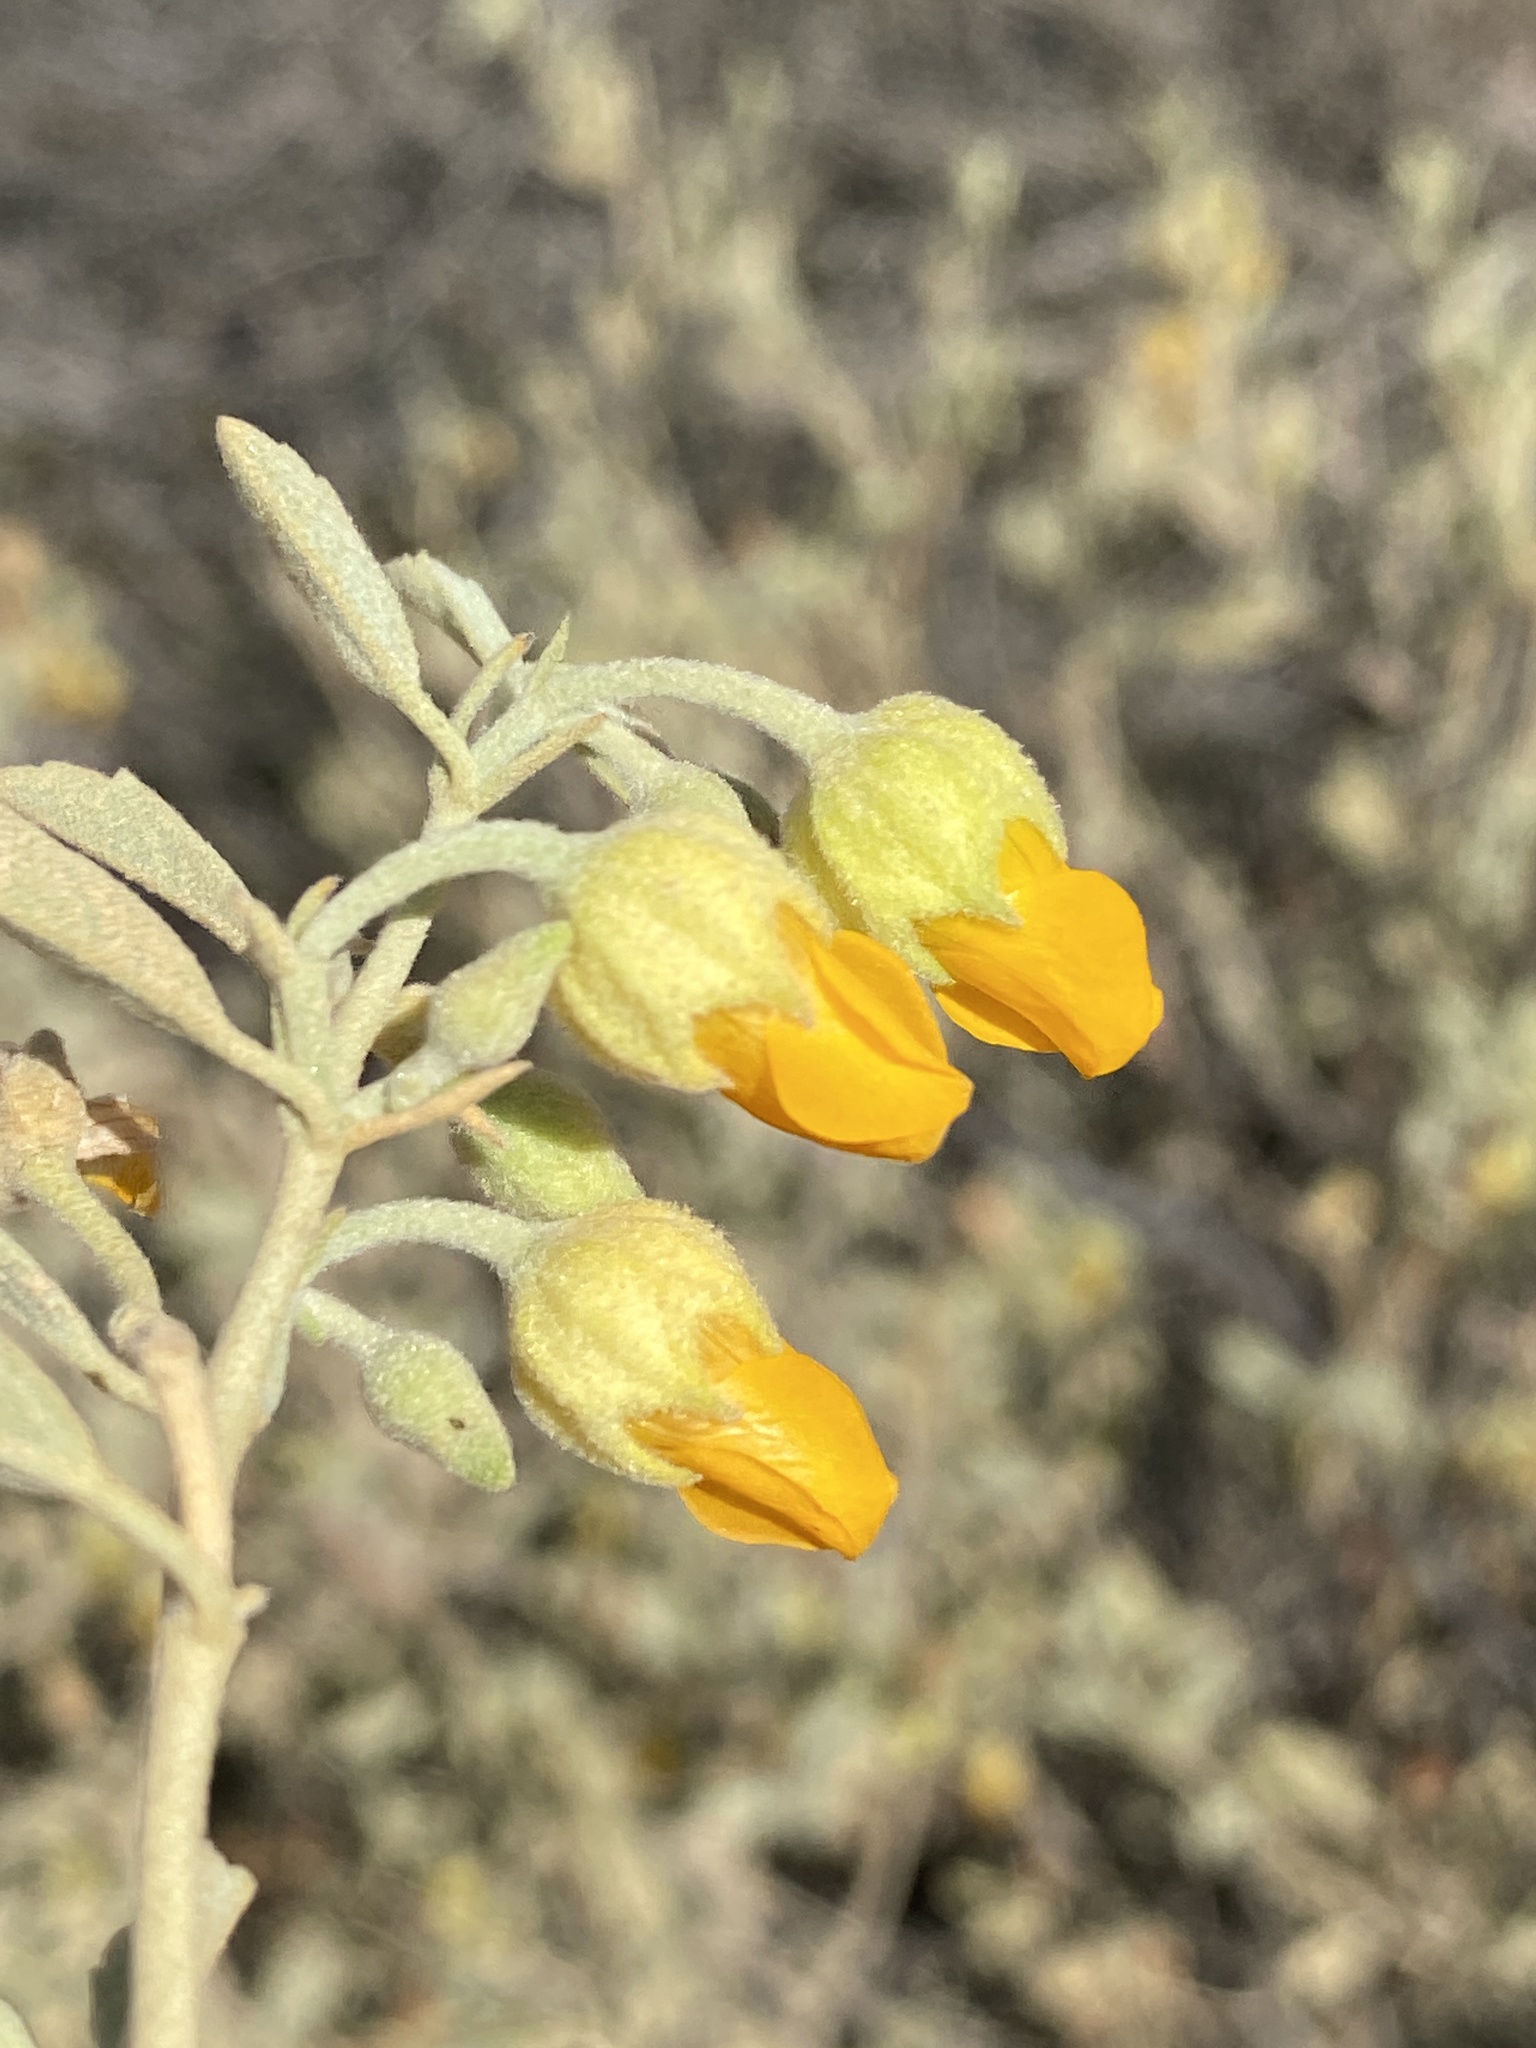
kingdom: Plantae
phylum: Tracheophyta
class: Magnoliopsida
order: Malvales
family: Malvaceae
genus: Hermannia
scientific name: Hermannia holosericea
